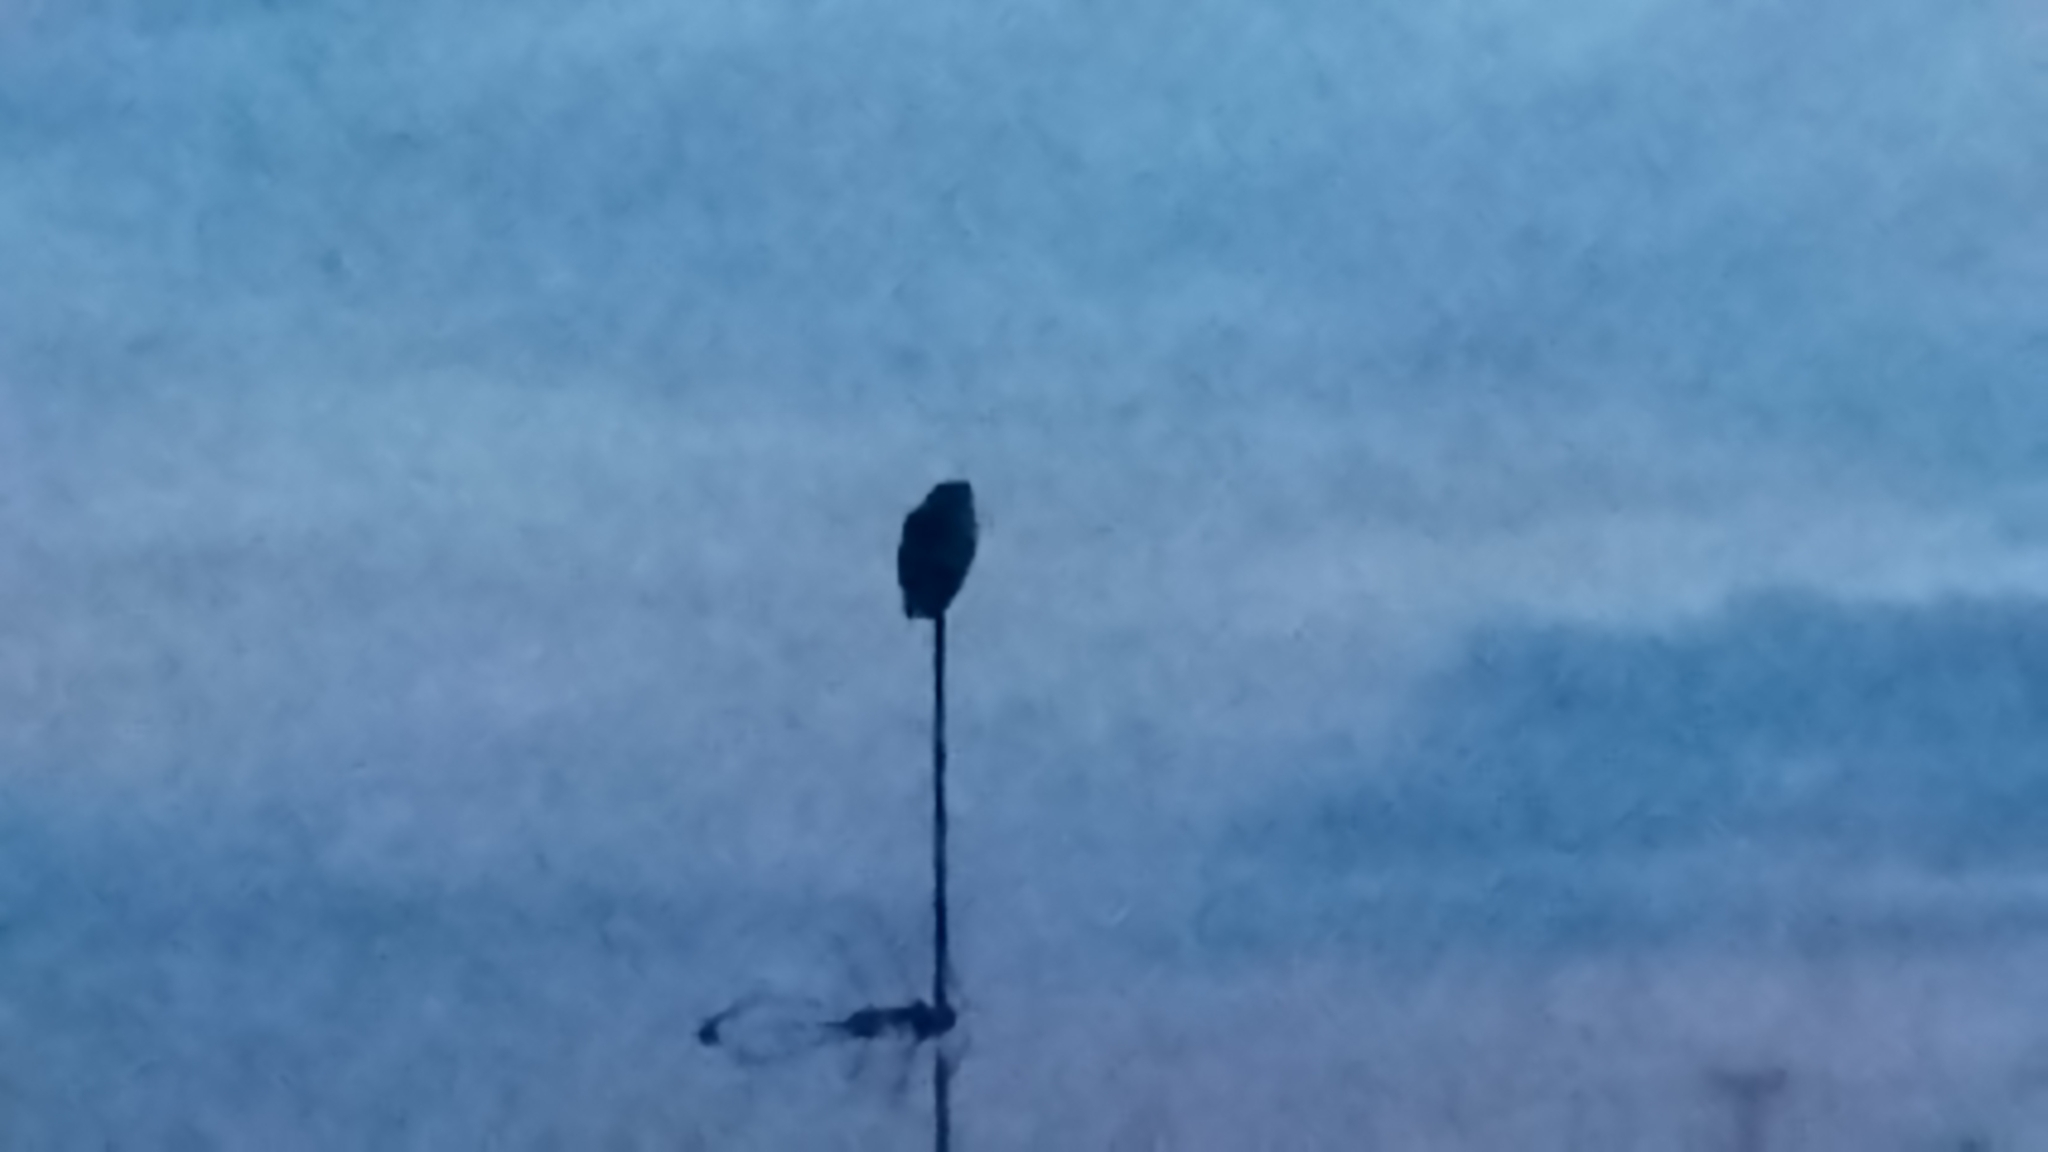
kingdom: Animalia
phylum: Chordata
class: Aves
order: Strigiformes
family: Strigidae
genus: Bubo
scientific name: Bubo bubo
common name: Eurasian eagle-owl
